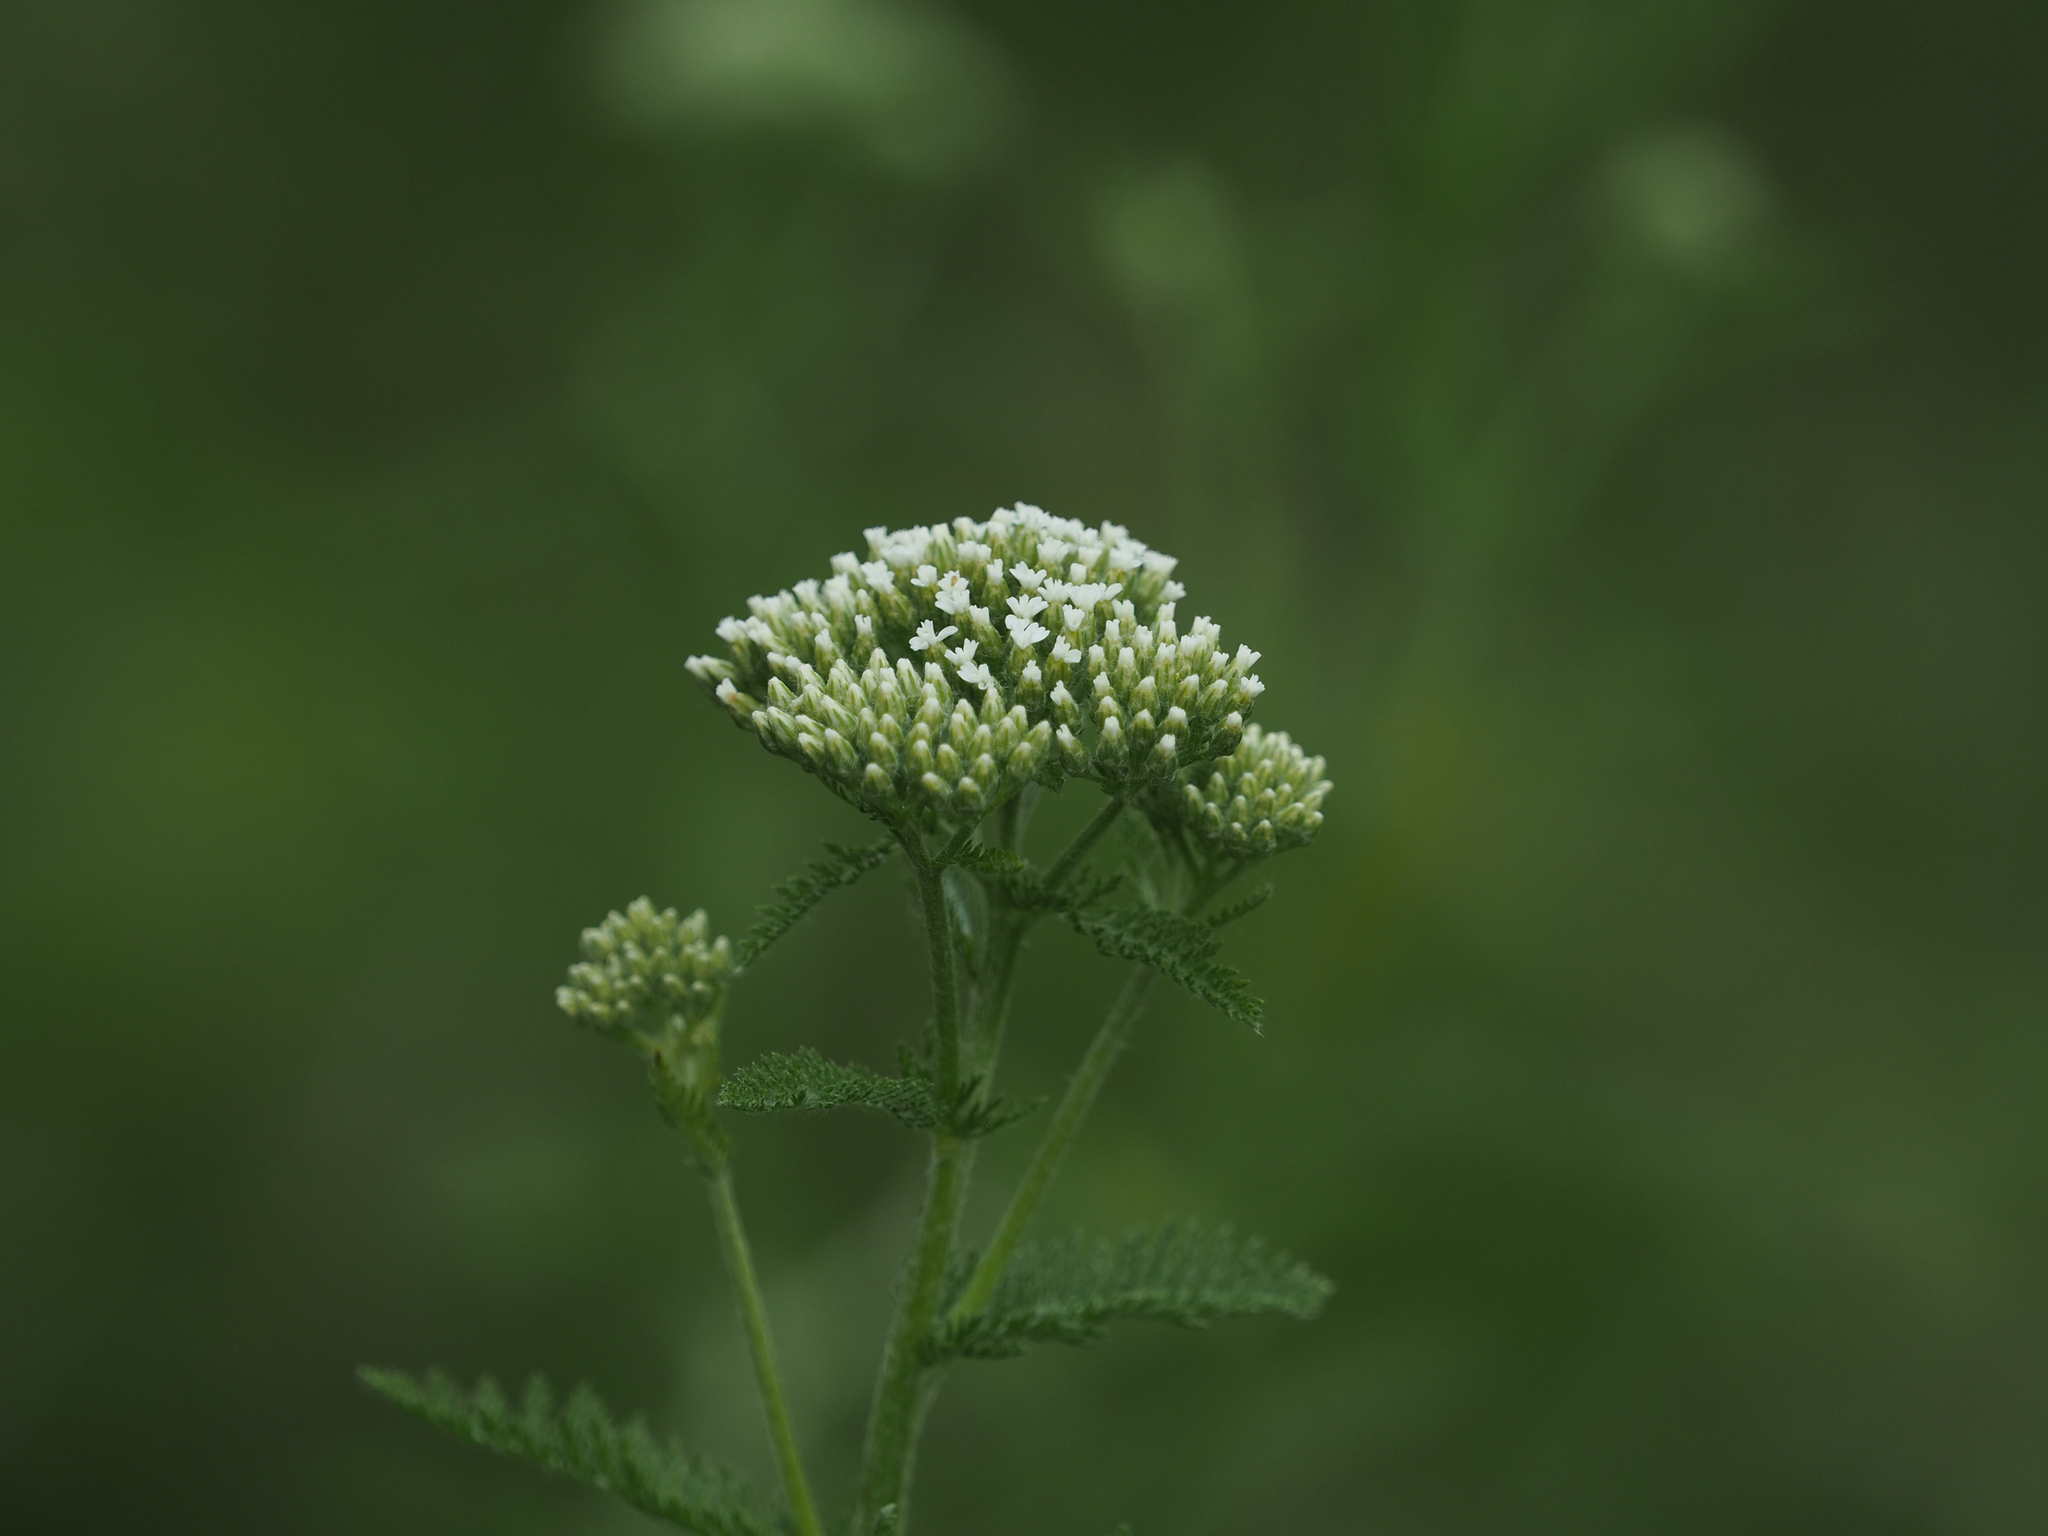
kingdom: Plantae
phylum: Tracheophyta
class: Magnoliopsida
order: Asterales
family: Asteraceae
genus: Achillea
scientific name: Achillea millefolium
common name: Yarrow
